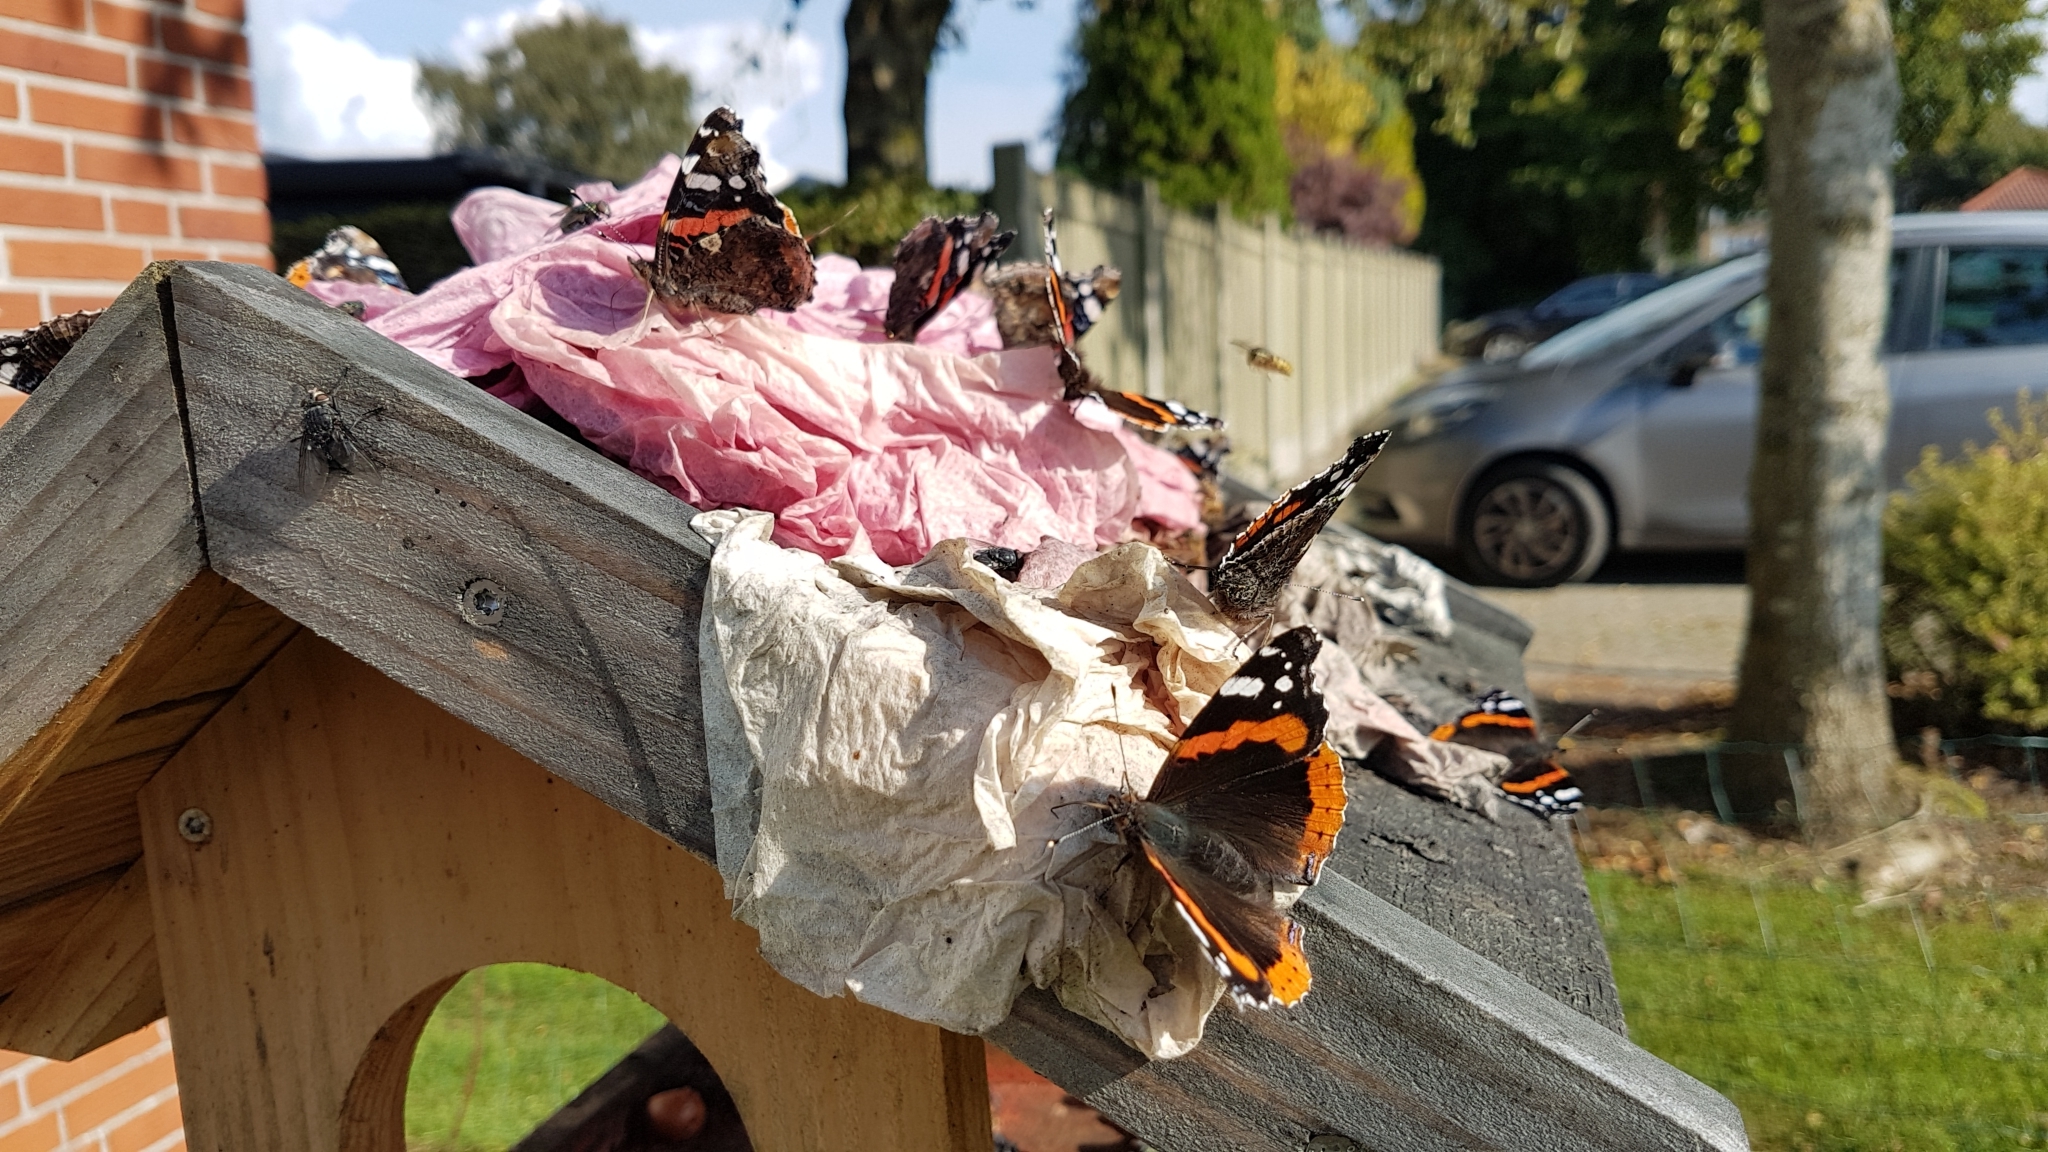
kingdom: Animalia
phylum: Arthropoda
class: Insecta
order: Lepidoptera
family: Nymphalidae
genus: Vanessa
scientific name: Vanessa atalanta
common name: Red admiral
